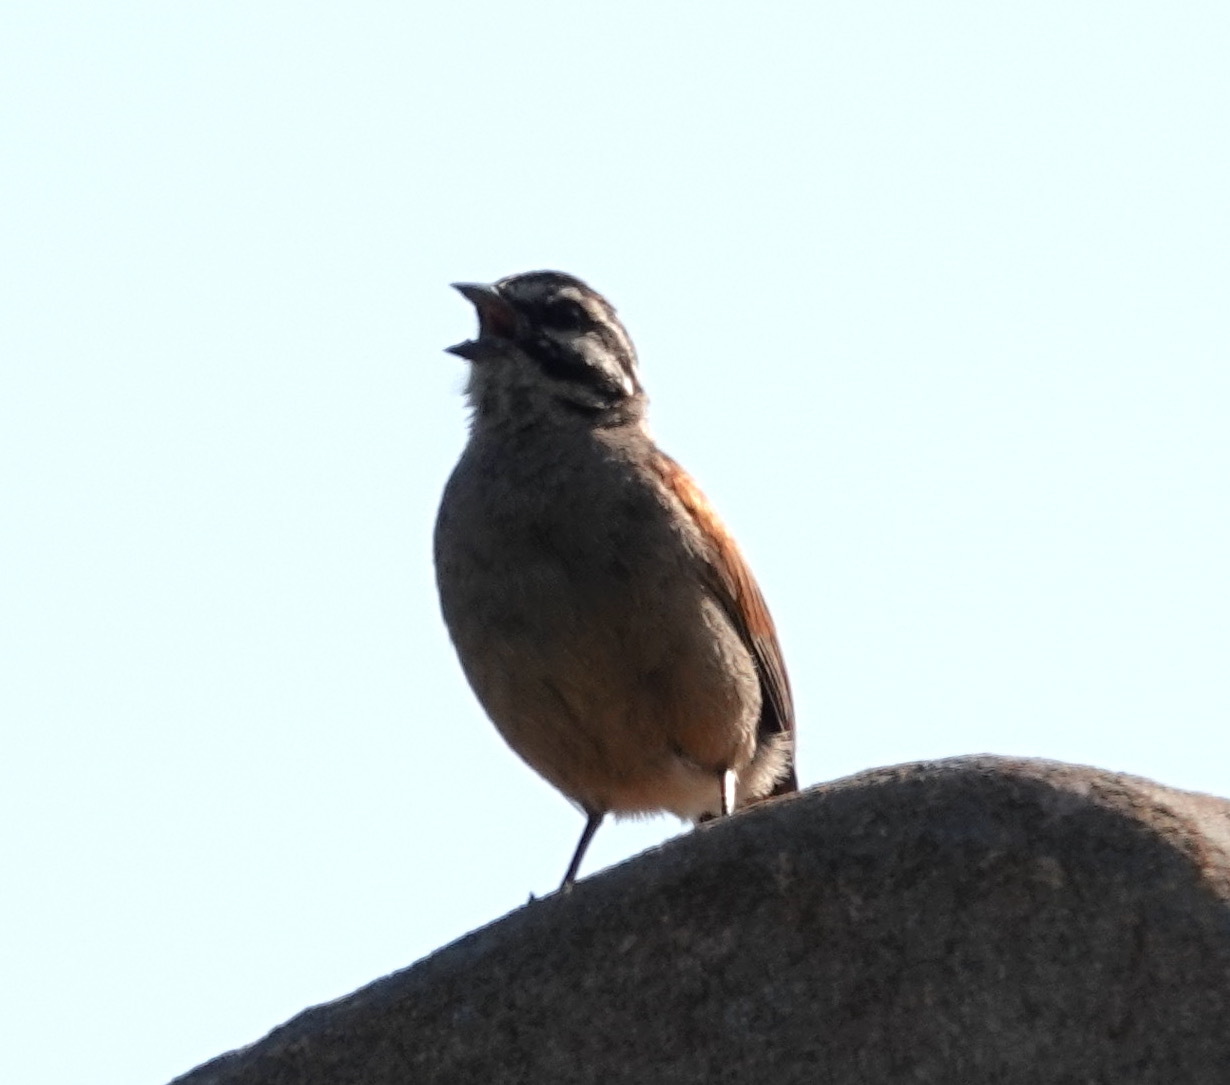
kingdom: Animalia
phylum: Chordata
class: Aves
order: Passeriformes
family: Emberizidae
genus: Emberiza
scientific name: Emberiza capensis
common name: Cape bunting
